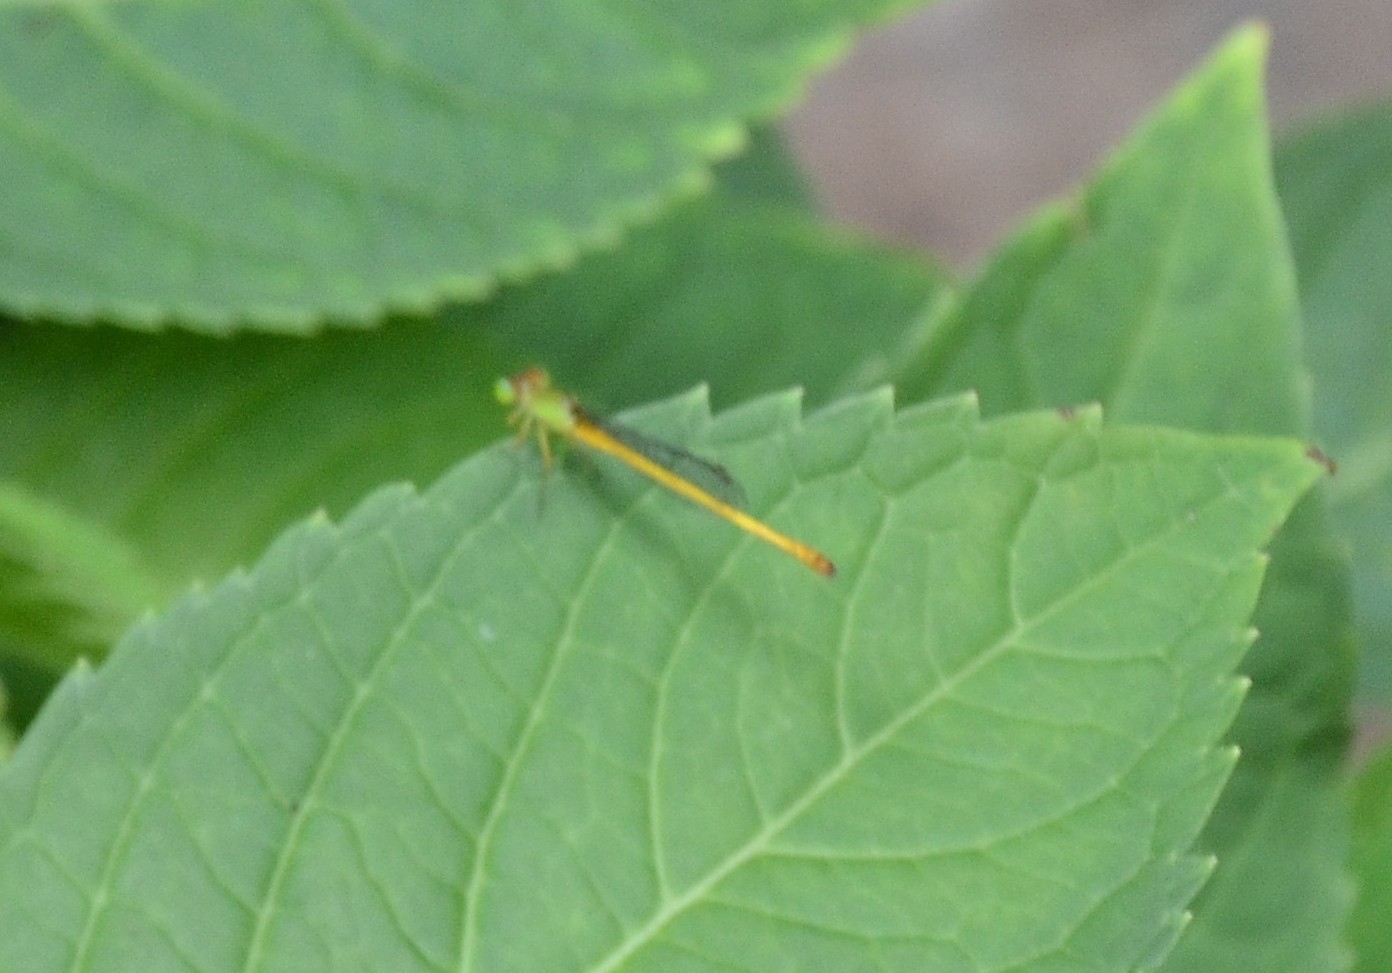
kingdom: Animalia
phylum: Arthropoda
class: Insecta
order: Odonata
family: Coenagrionidae
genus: Ceriagrion
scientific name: Ceriagrion coromandelianum
